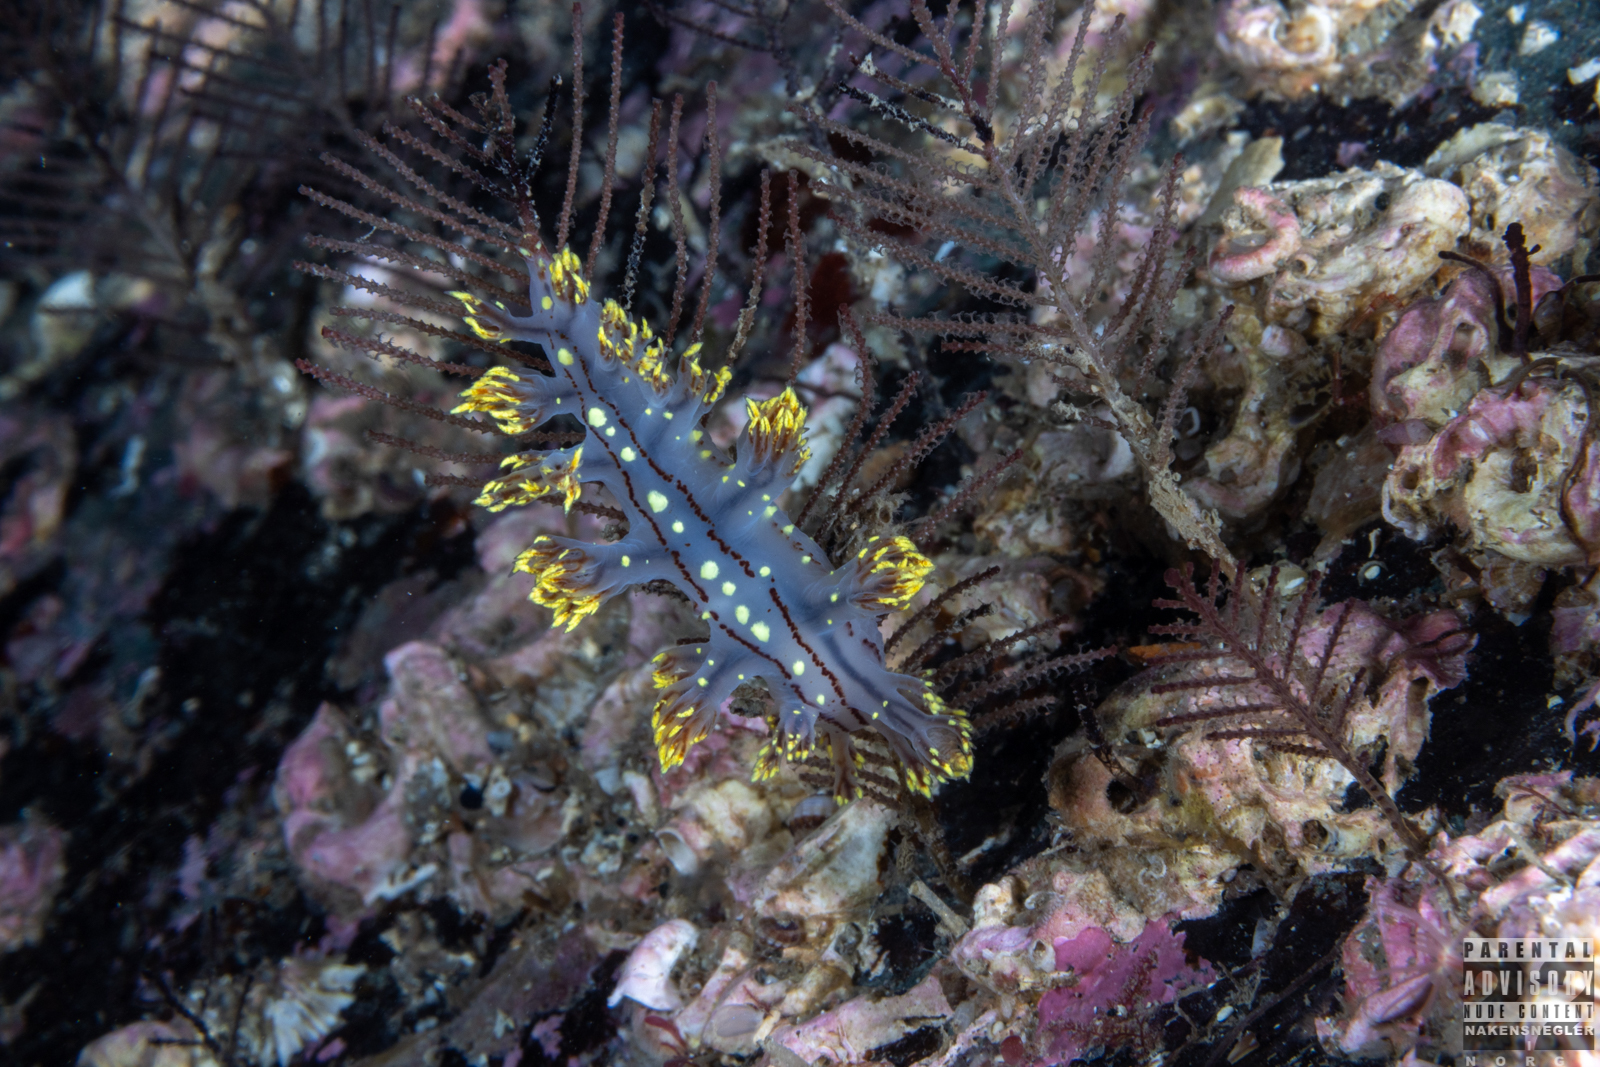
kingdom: Animalia
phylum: Mollusca
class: Gastropoda
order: Nudibranchia
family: Dendronotidae
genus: Dendronotus
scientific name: Dendronotus yrjargul
